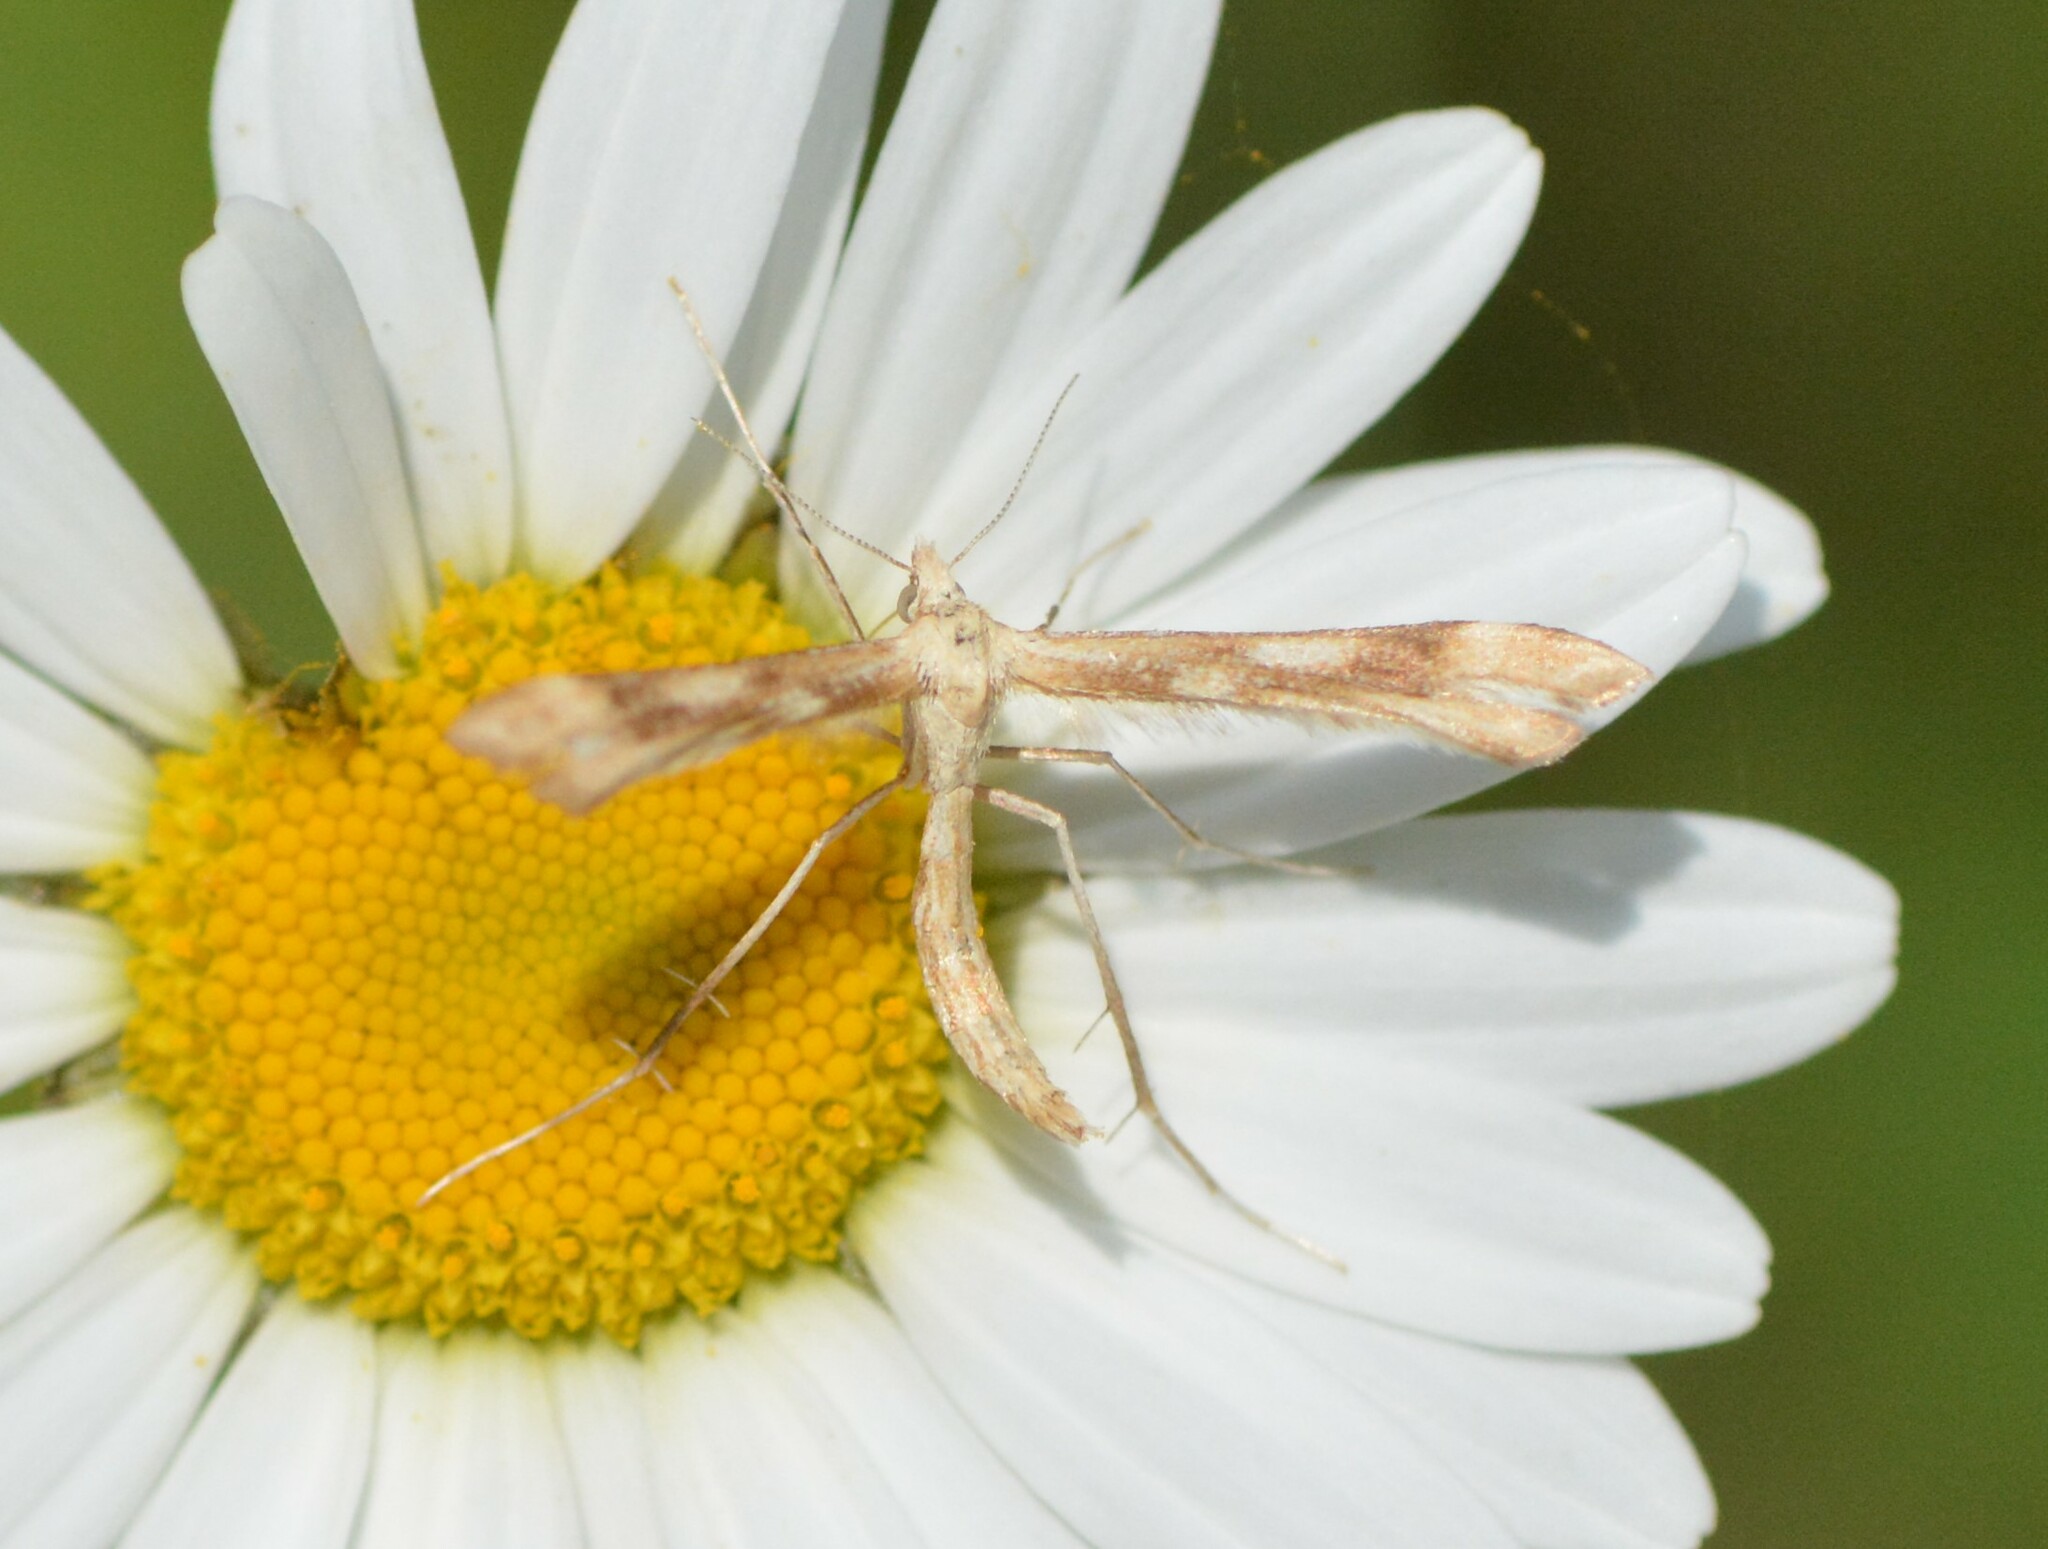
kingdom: Animalia
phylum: Arthropoda
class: Insecta
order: Lepidoptera
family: Pterophoridae
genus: Gillmeria
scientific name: Gillmeria pallidactyla
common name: Yarrow plume
